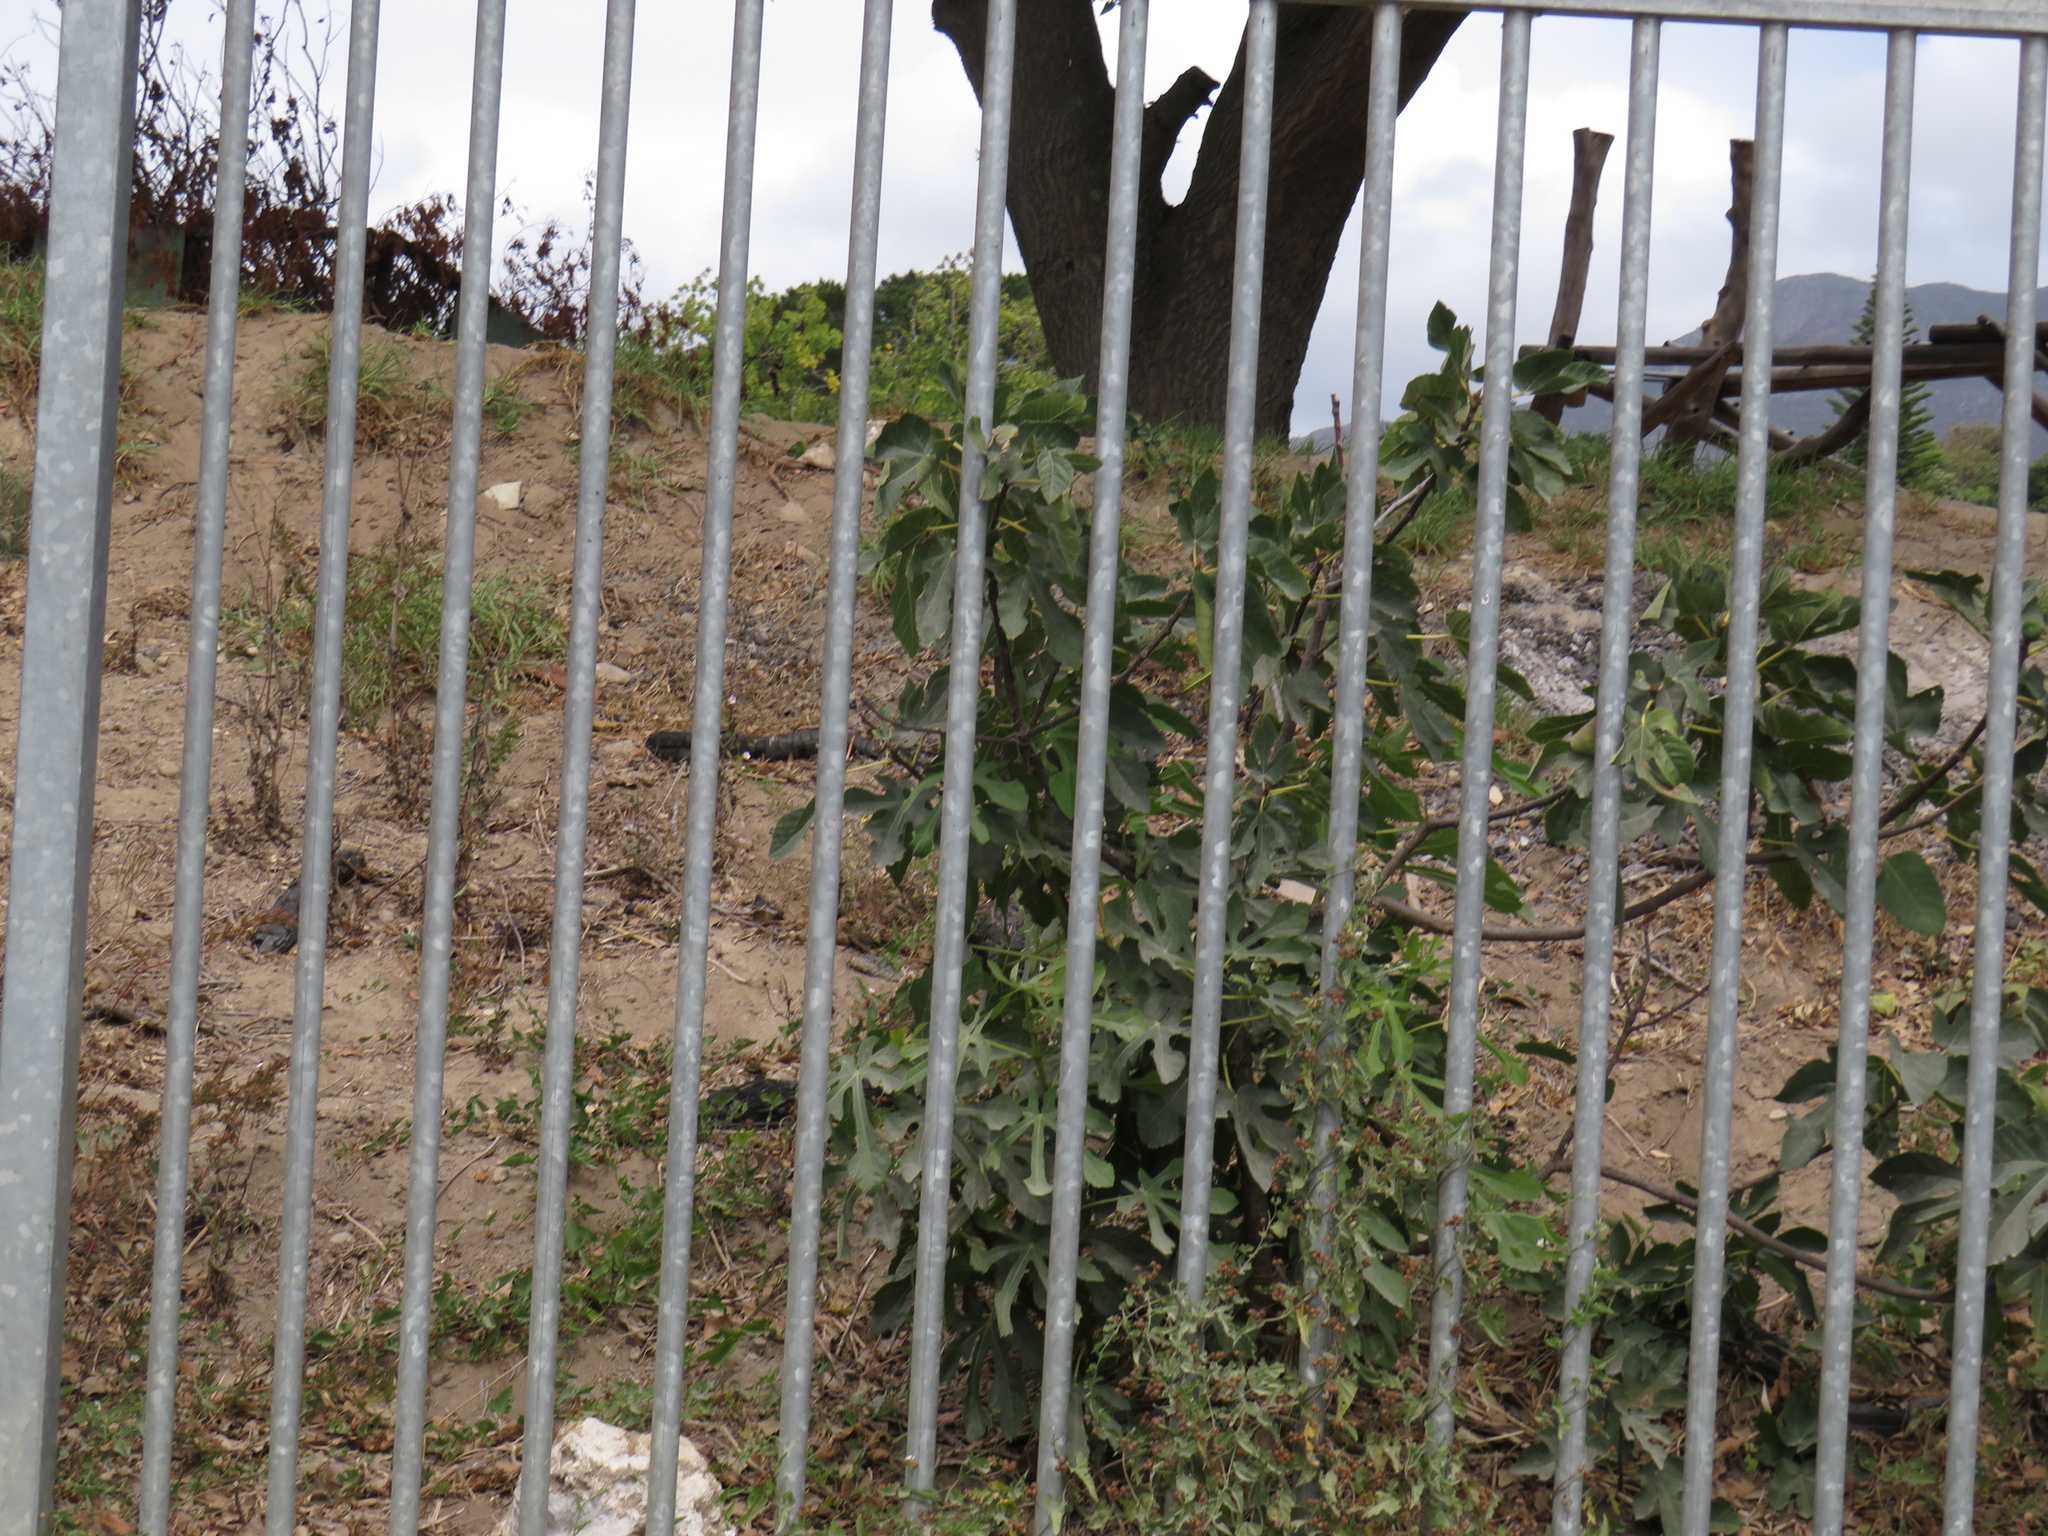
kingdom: Plantae
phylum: Tracheophyta
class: Magnoliopsida
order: Rosales
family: Moraceae
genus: Ficus
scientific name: Ficus carica
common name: Fig
